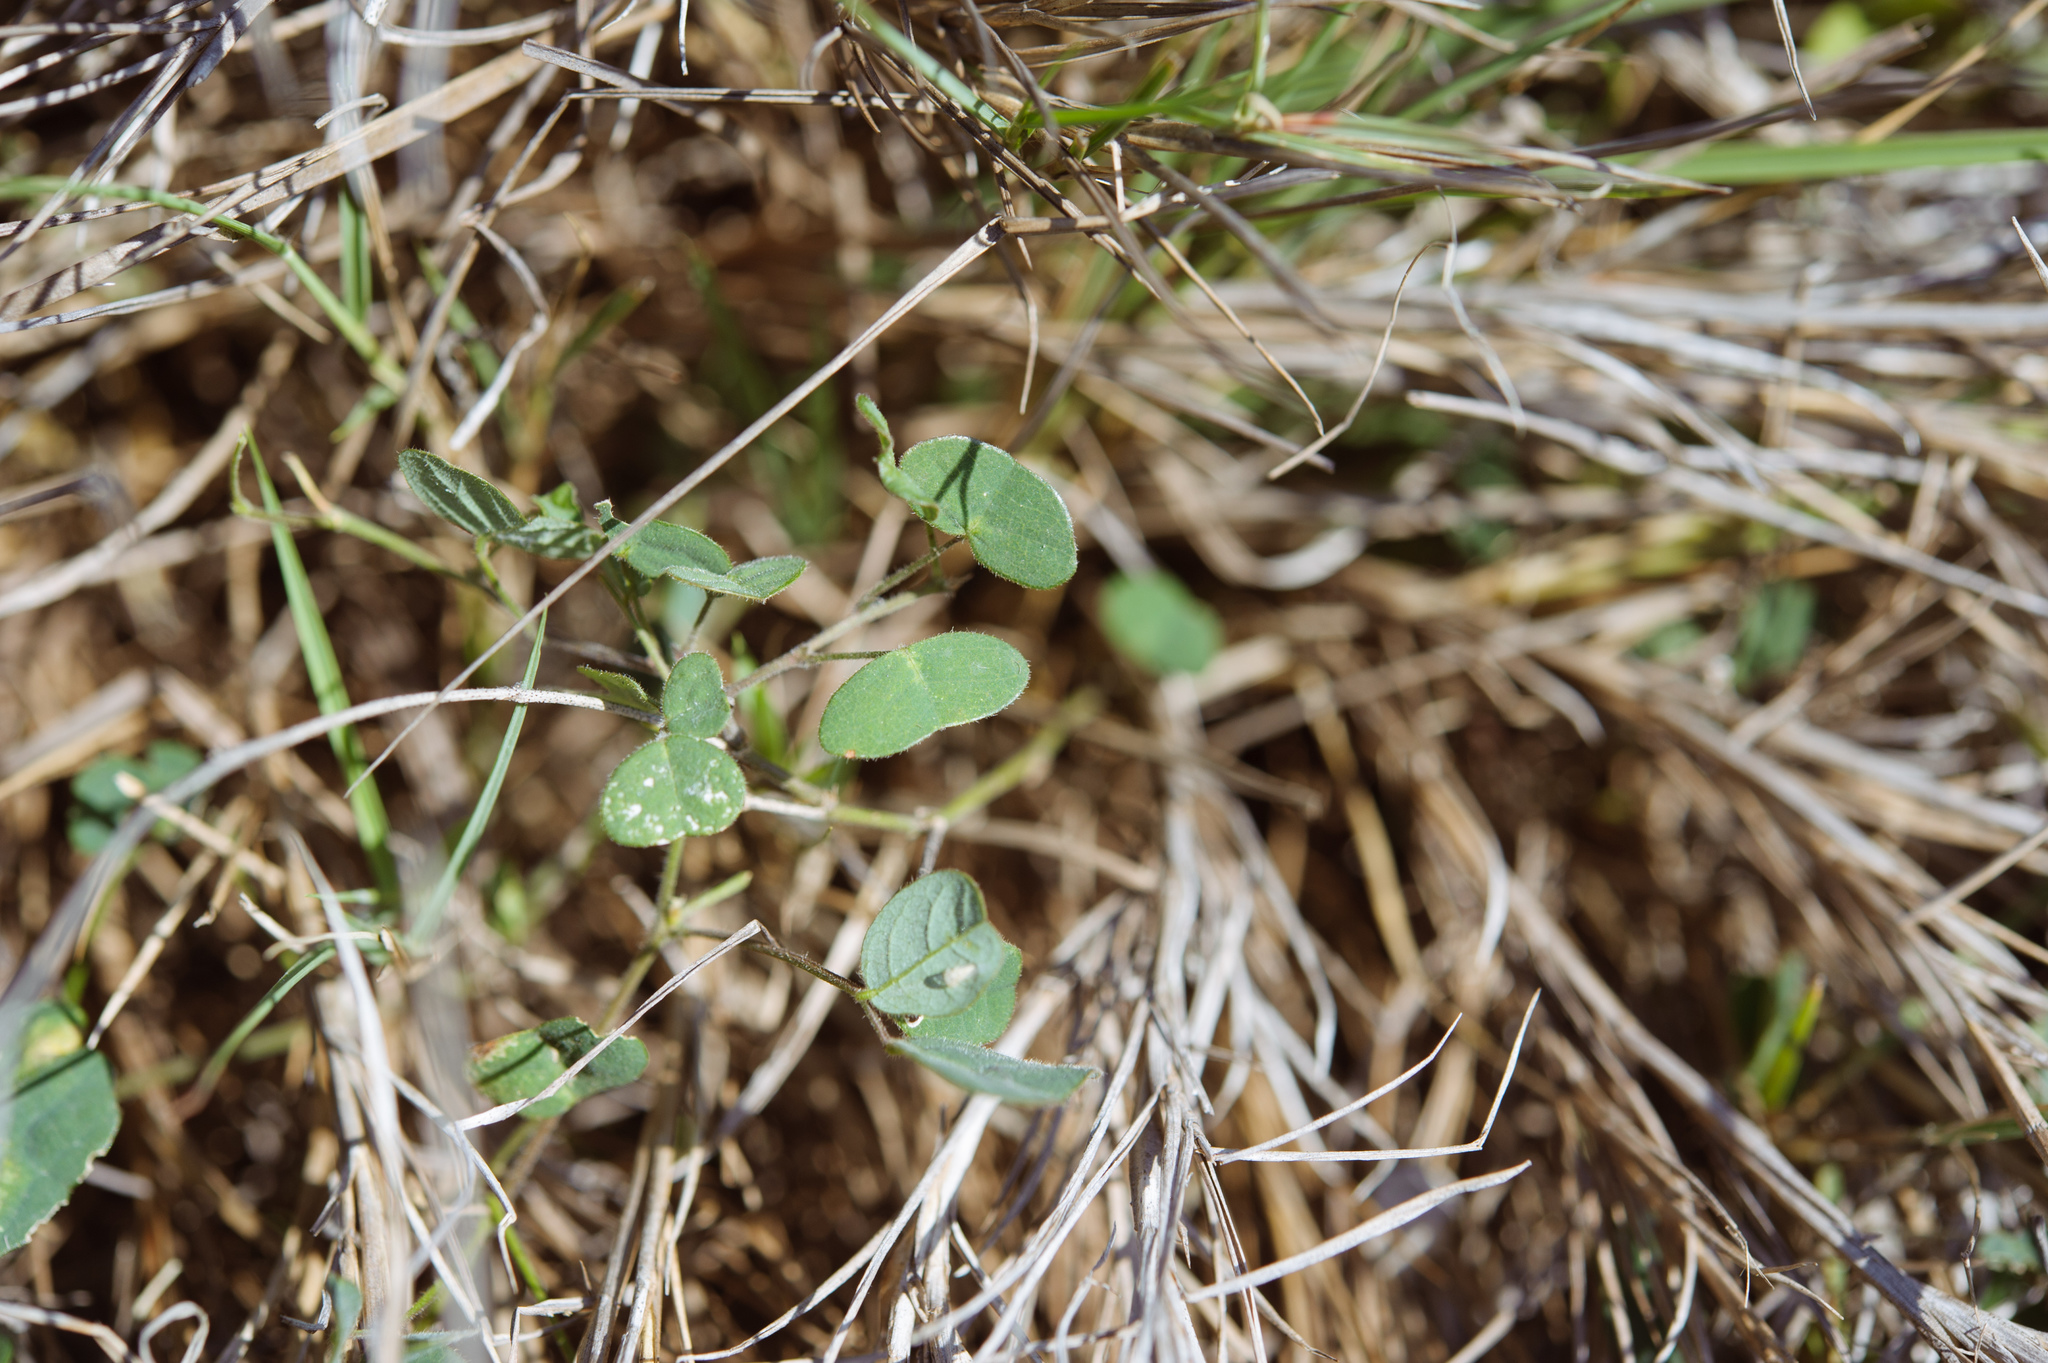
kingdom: Plantae
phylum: Tracheophyta
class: Magnoliopsida
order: Fabales
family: Fabaceae
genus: Christia
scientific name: Christia obcordata
